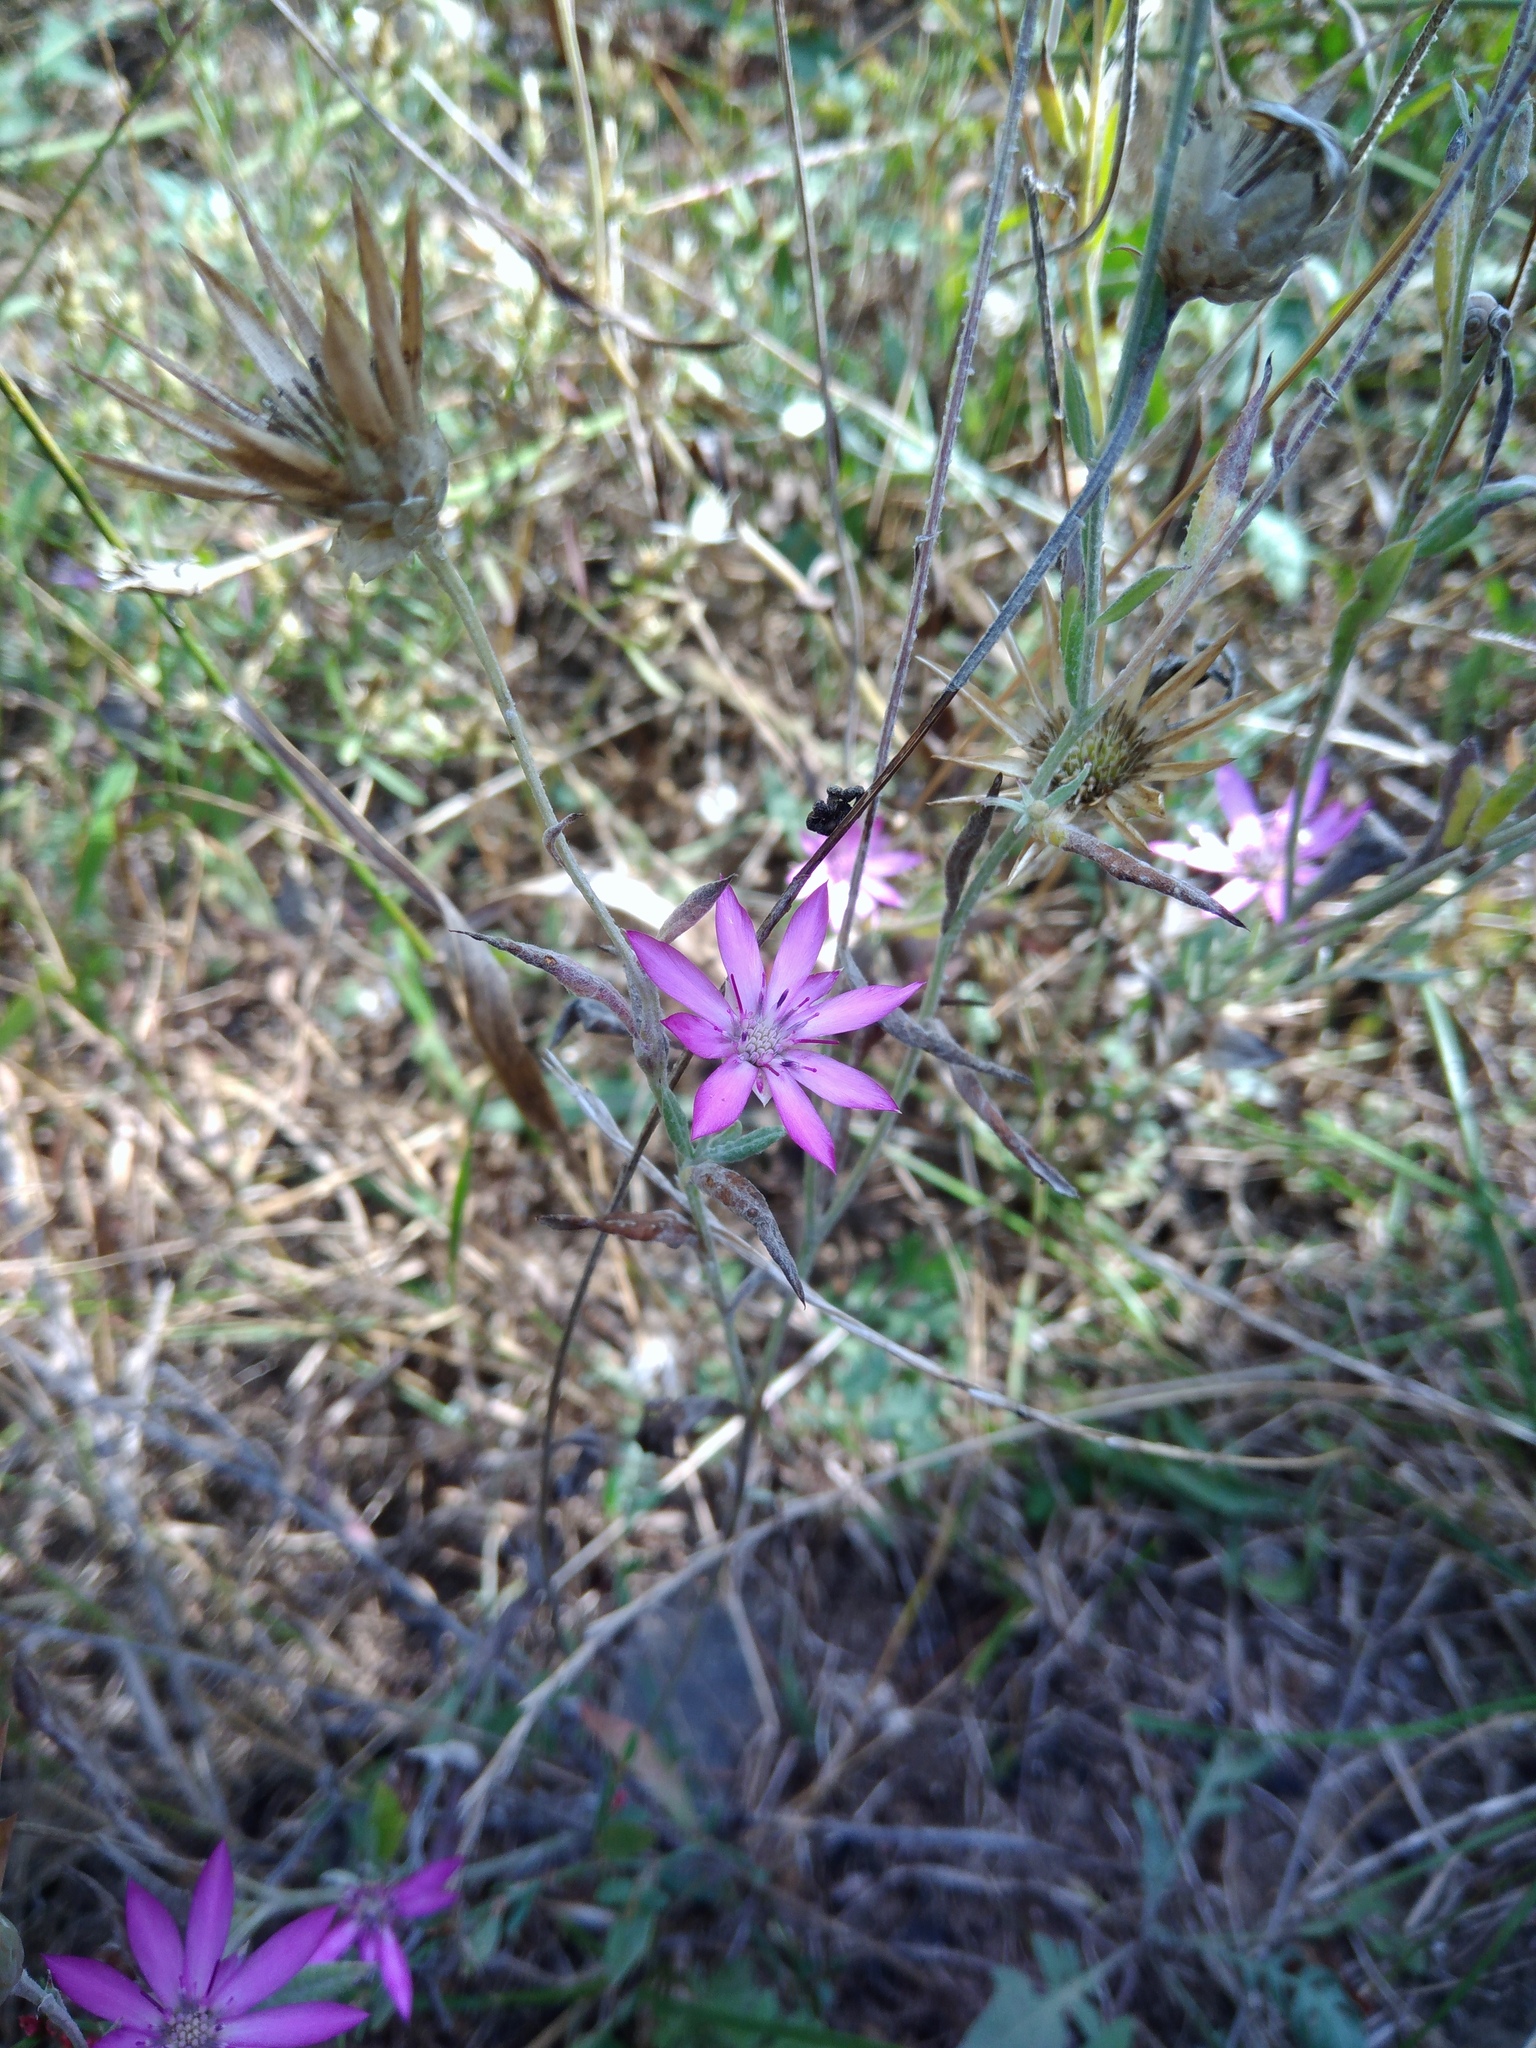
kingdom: Plantae
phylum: Tracheophyta
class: Magnoliopsida
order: Asterales
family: Asteraceae
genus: Xeranthemum
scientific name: Xeranthemum annuum
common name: Immortelle
